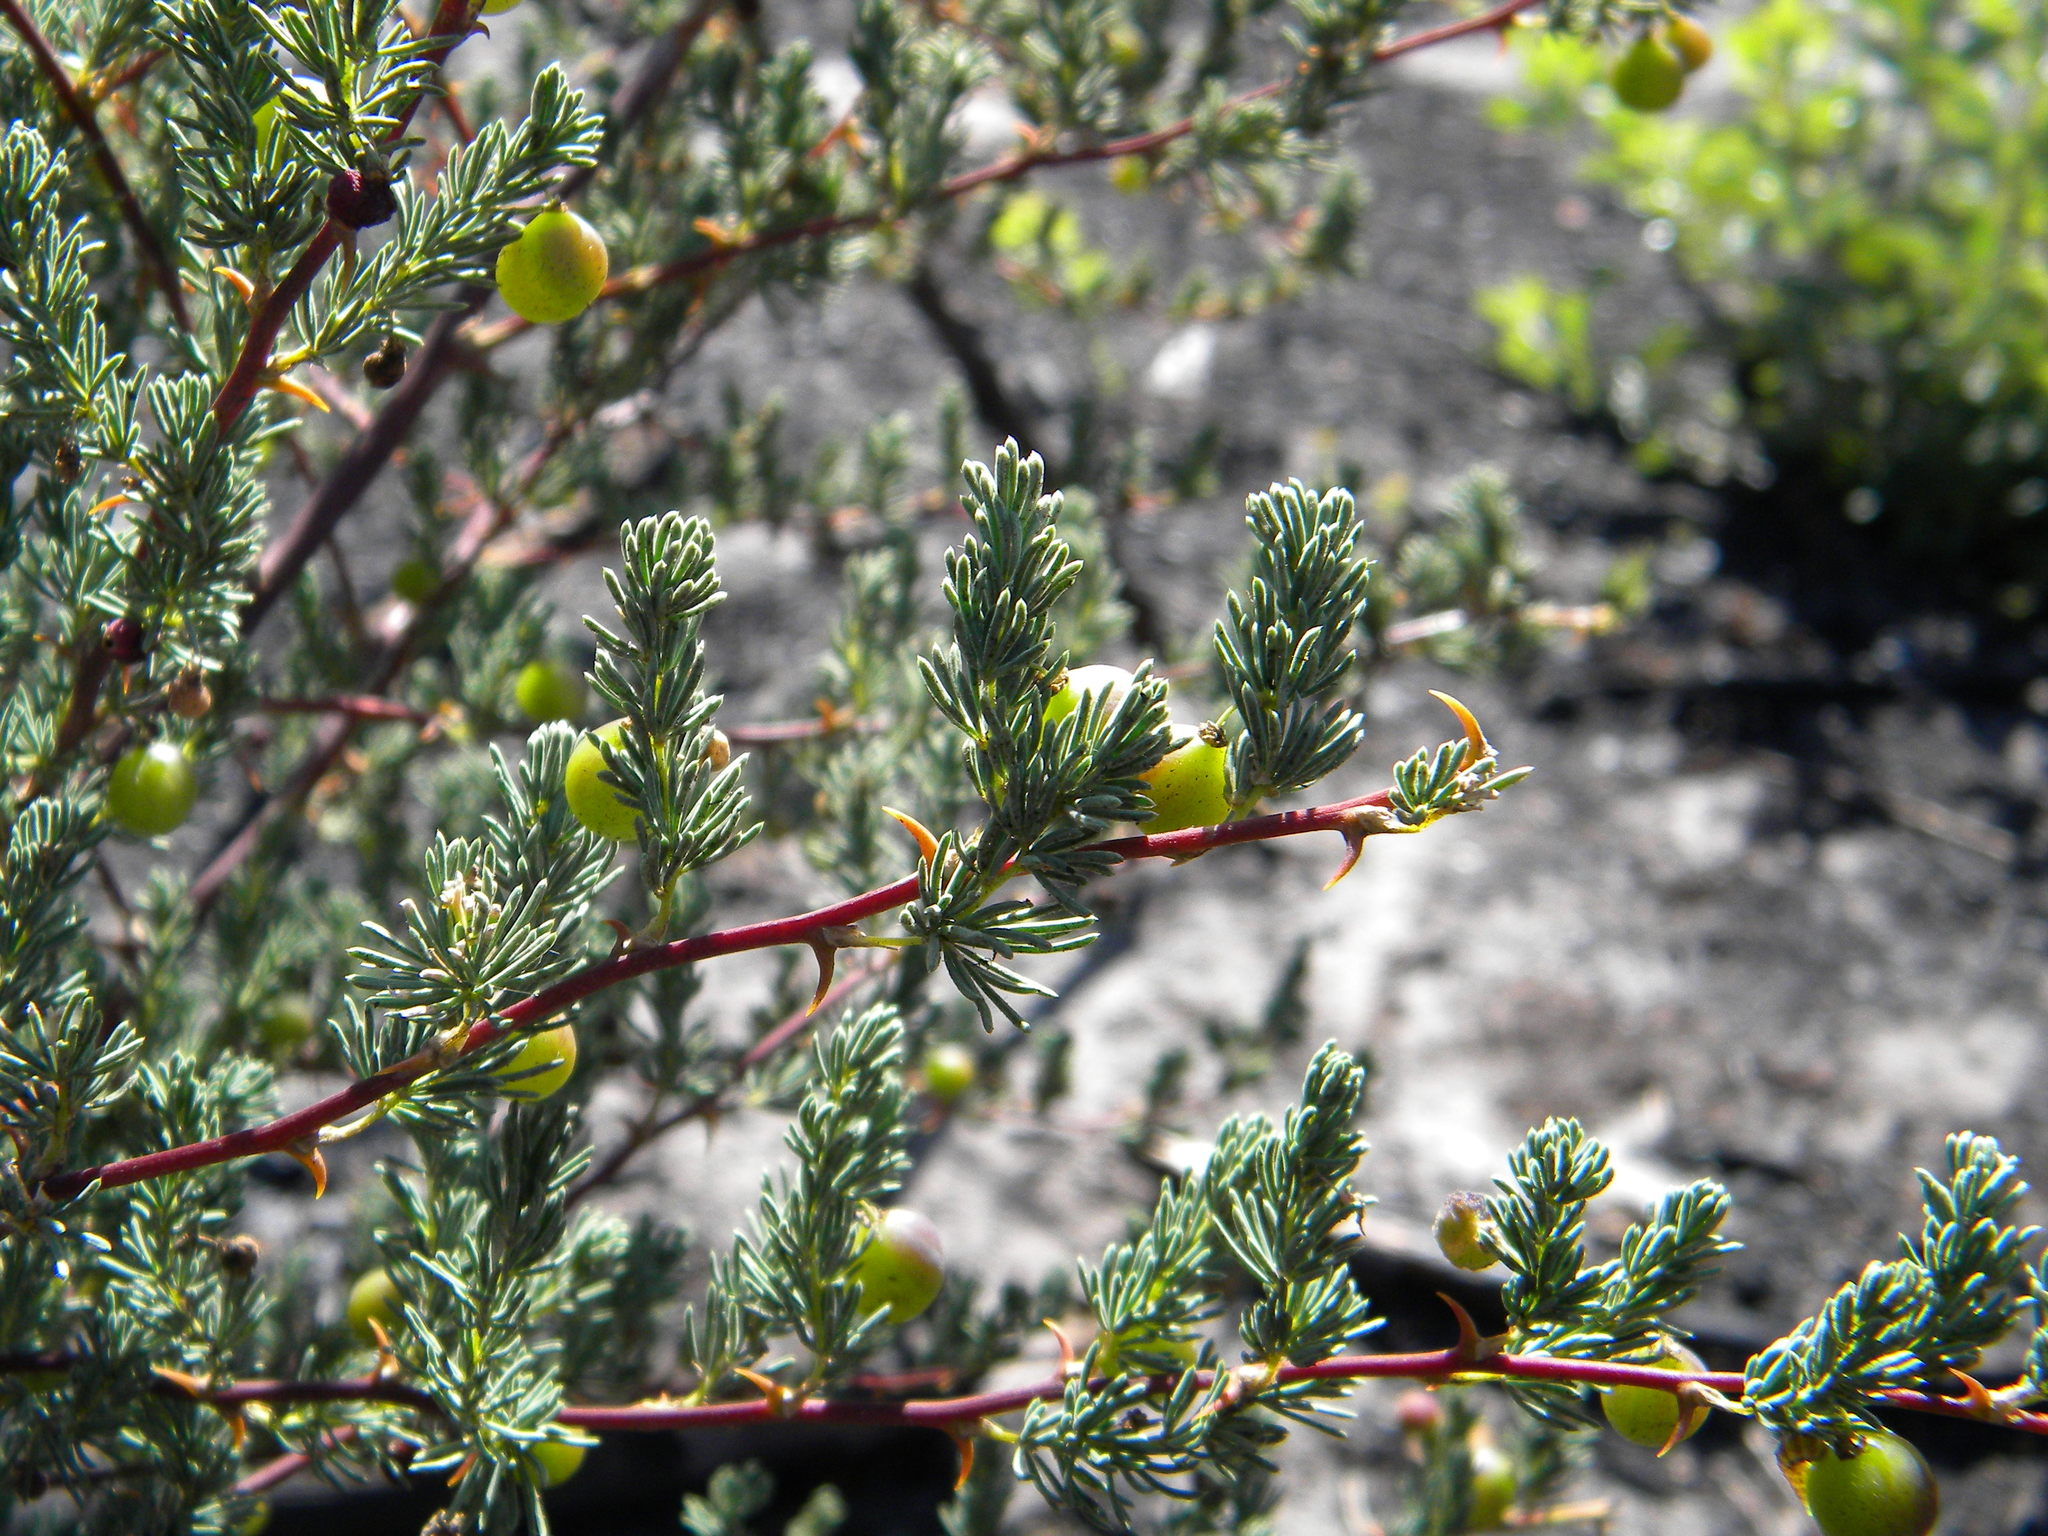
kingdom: Plantae
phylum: Tracheophyta
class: Liliopsida
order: Asparagales
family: Asparagaceae
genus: Asparagus
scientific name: Asparagus rubicundus
